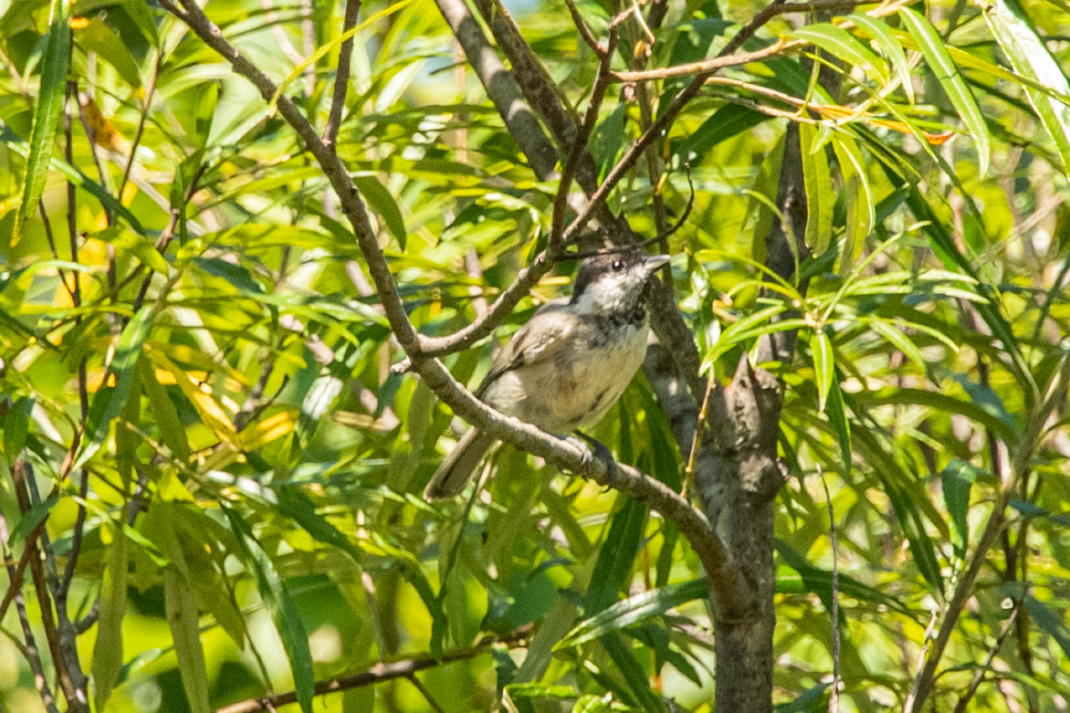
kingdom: Animalia
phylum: Chordata
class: Aves
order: Passeriformes
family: Paridae
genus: Parus
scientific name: Parus minor
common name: Japanese tit
